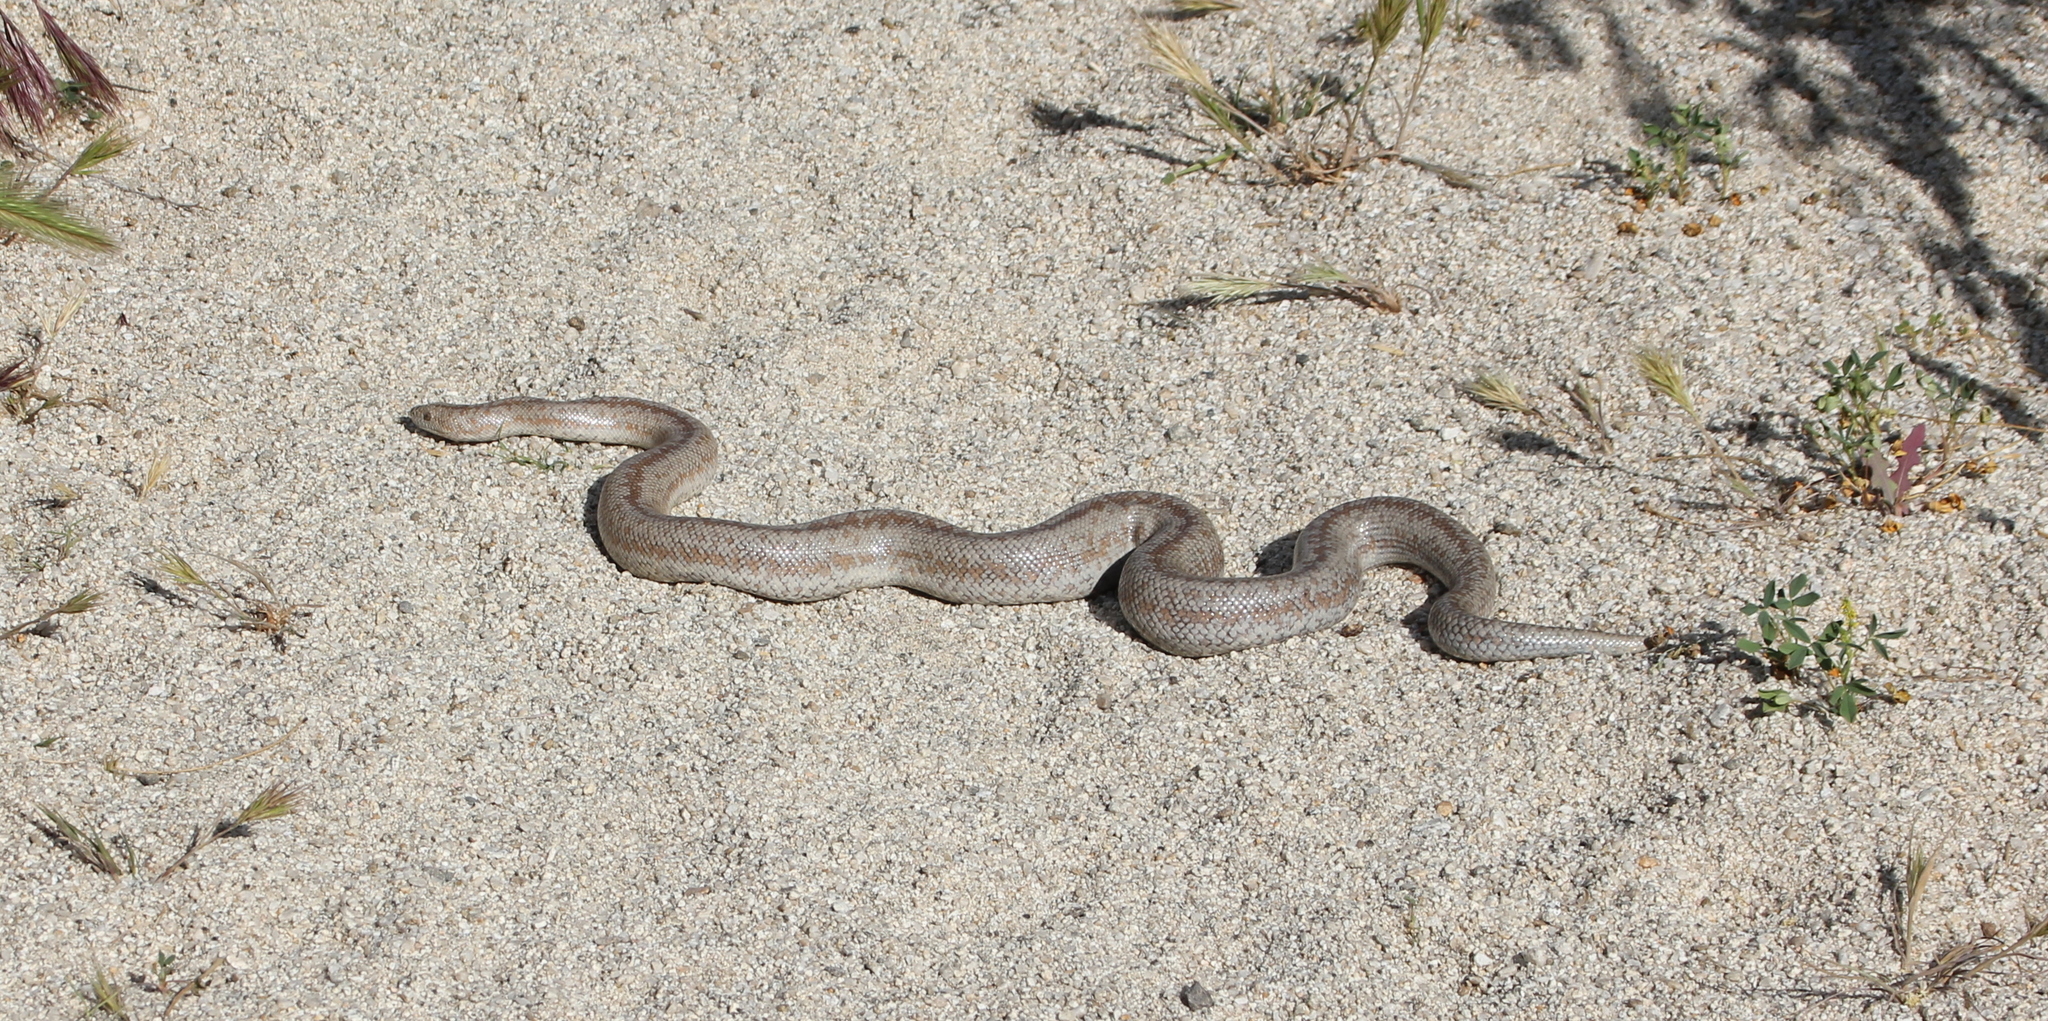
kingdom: Animalia
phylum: Chordata
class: Squamata
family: Boidae
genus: Lichanura
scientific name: Lichanura orcutti
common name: Northern three-lined boa
